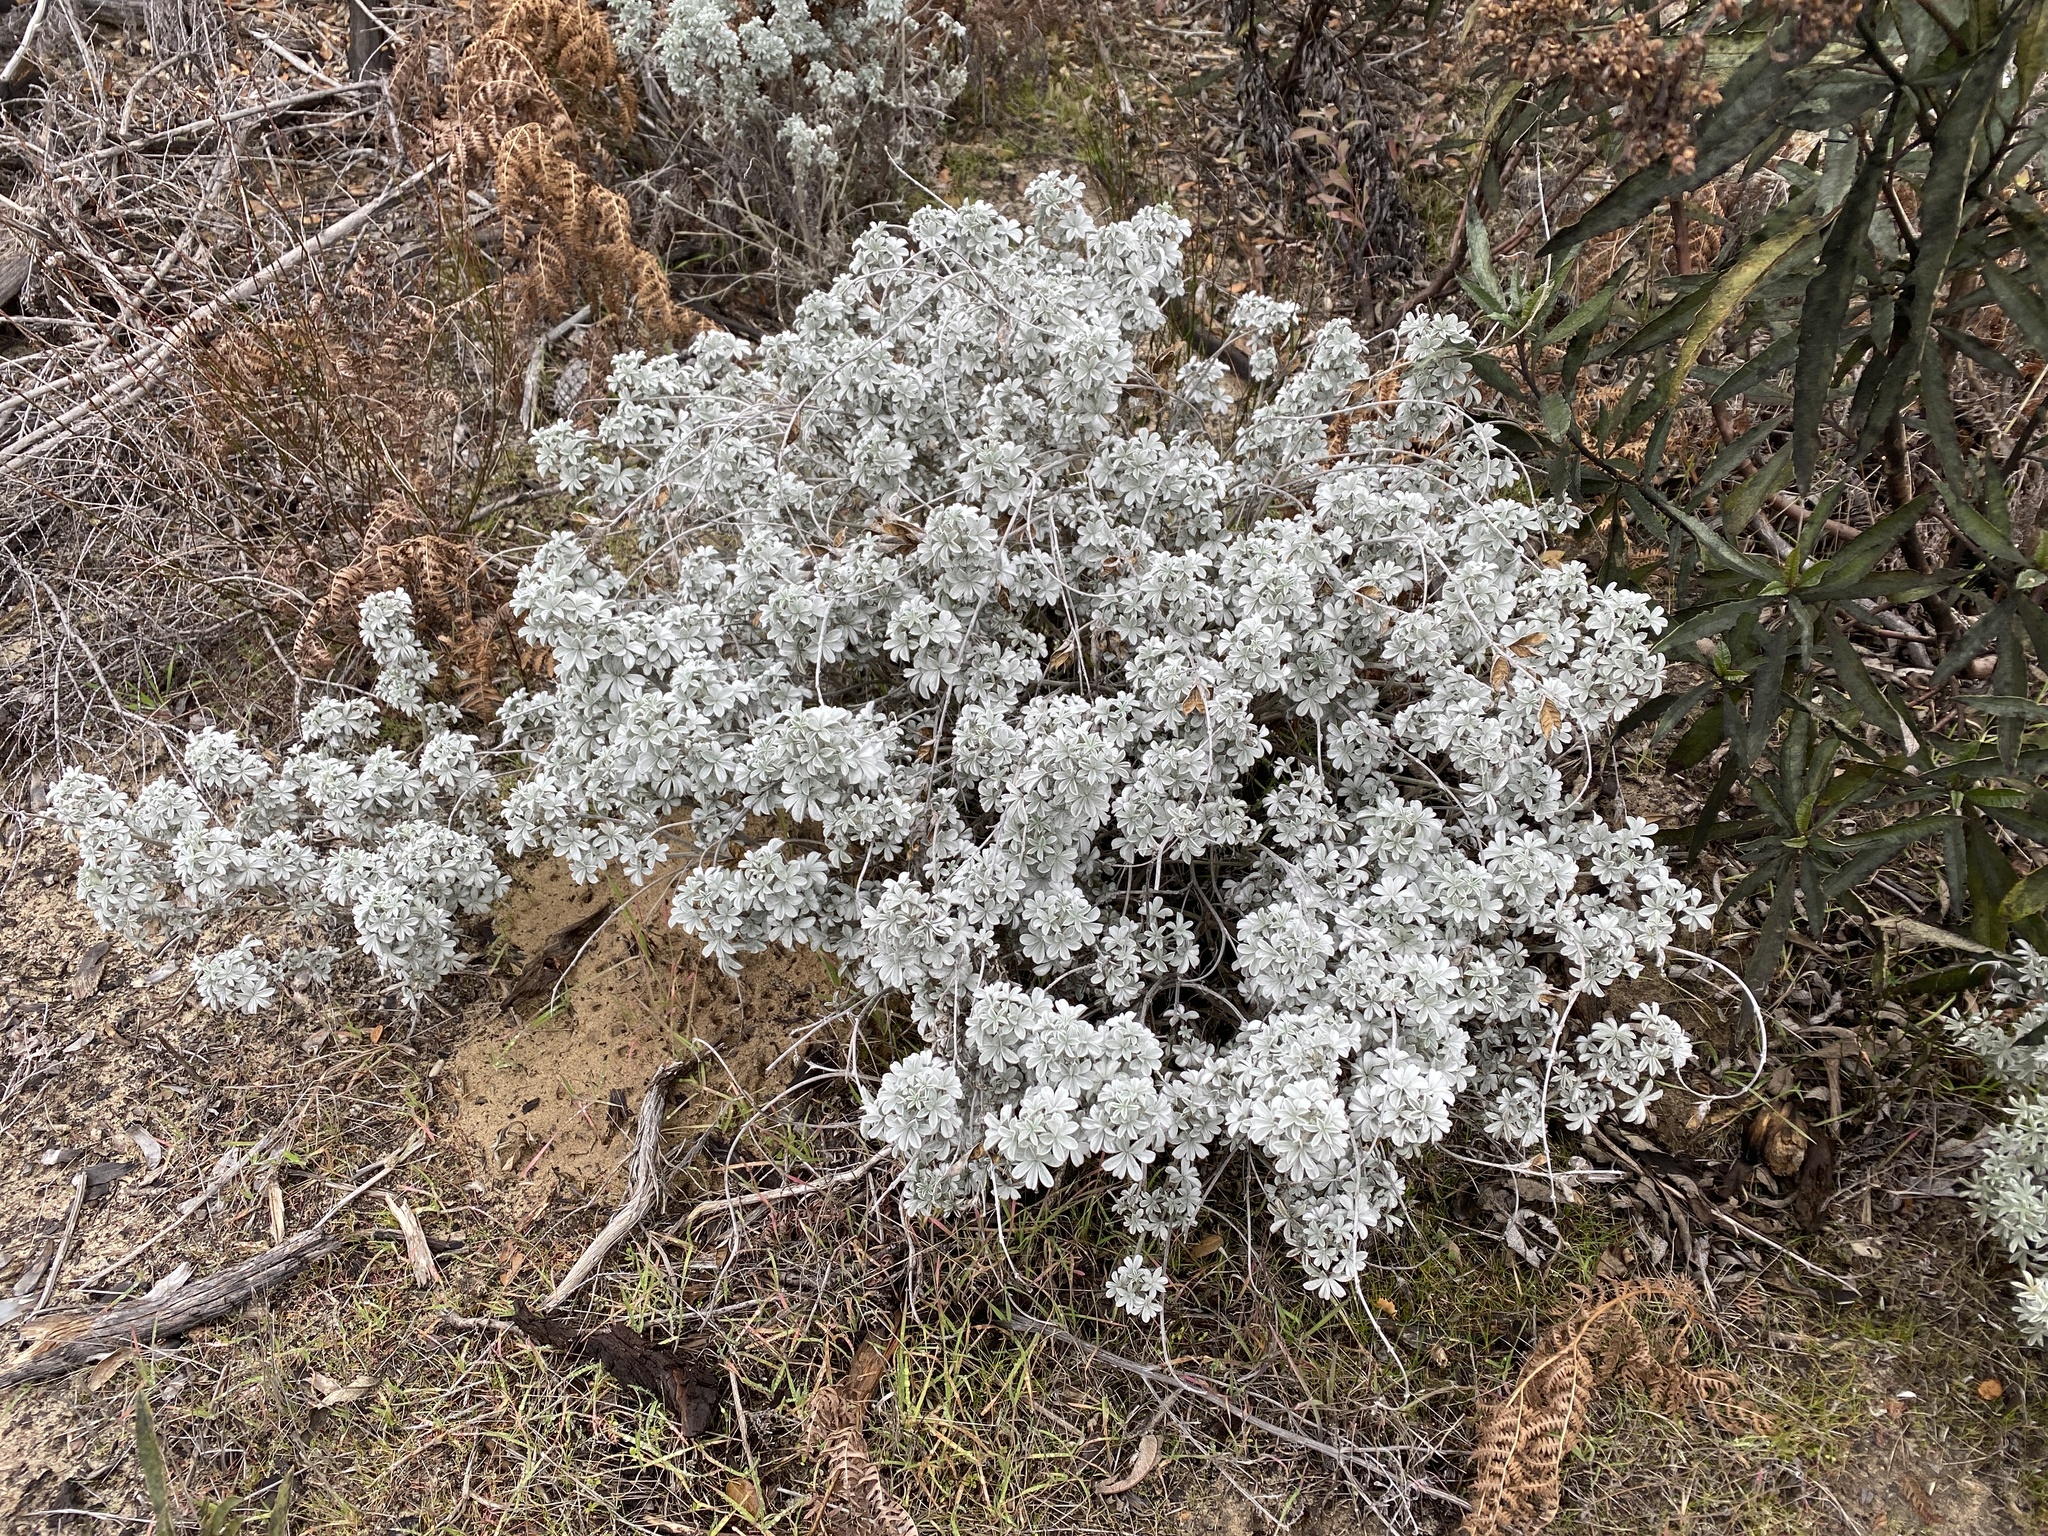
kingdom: Plantae
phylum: Tracheophyta
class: Magnoliopsida
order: Fabales
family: Fabaceae
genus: Lupinus
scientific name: Lupinus albifrons
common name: Foothill lupine
